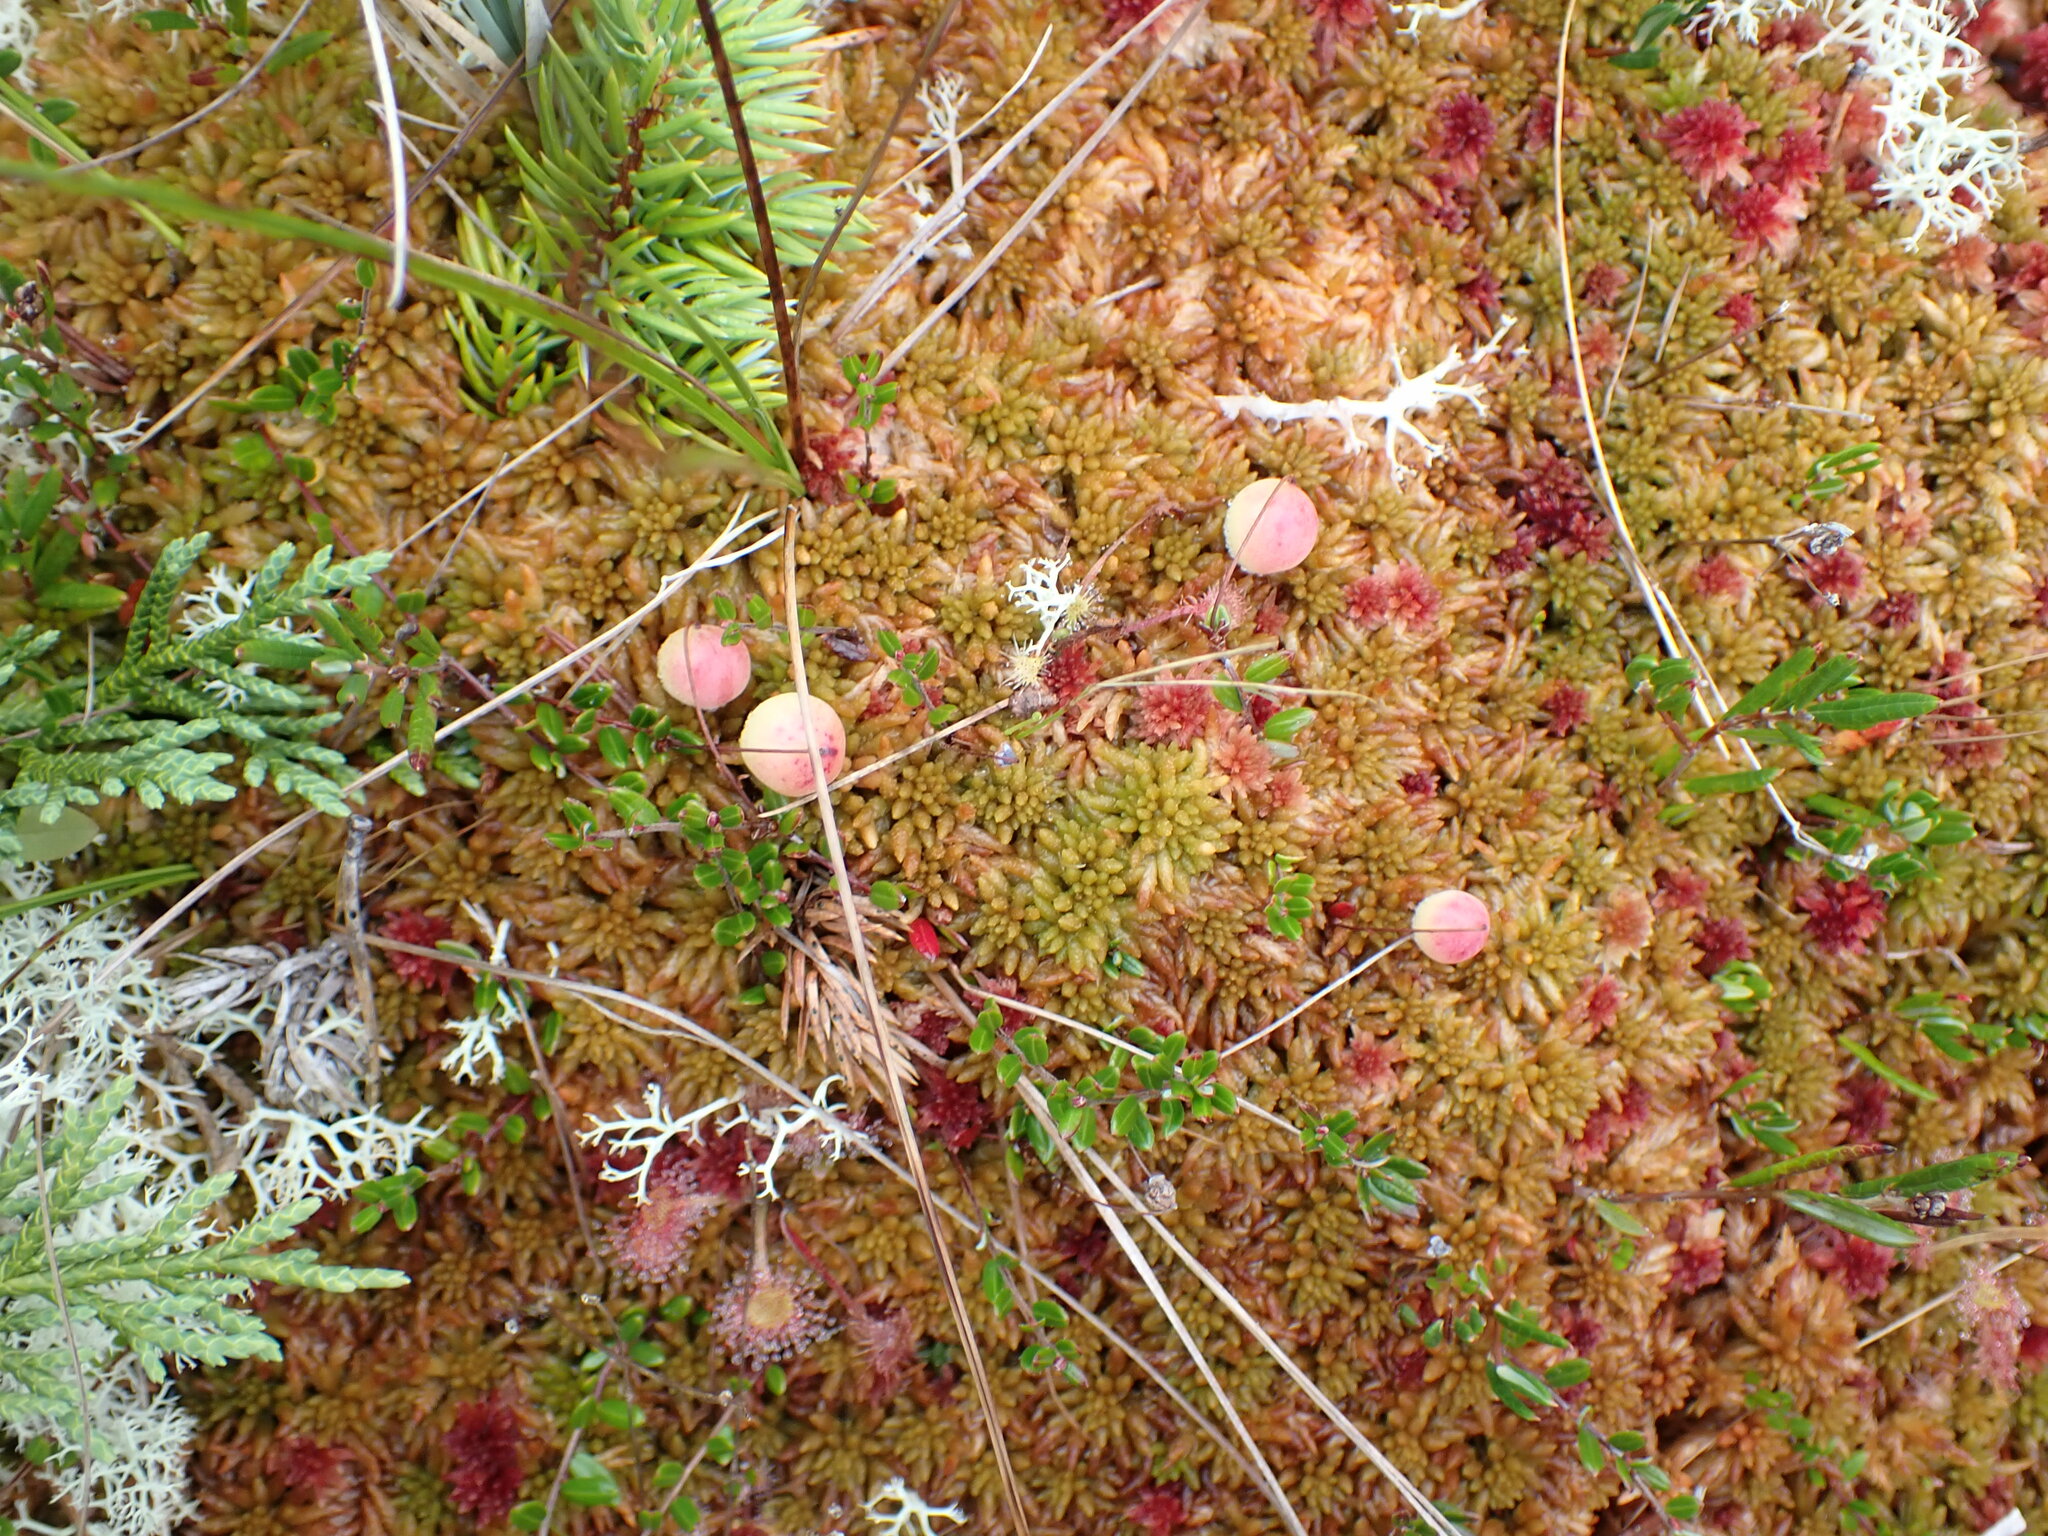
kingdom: Plantae
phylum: Tracheophyta
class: Magnoliopsida
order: Ericales
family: Ericaceae
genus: Vaccinium
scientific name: Vaccinium oxycoccos
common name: Cranberry
